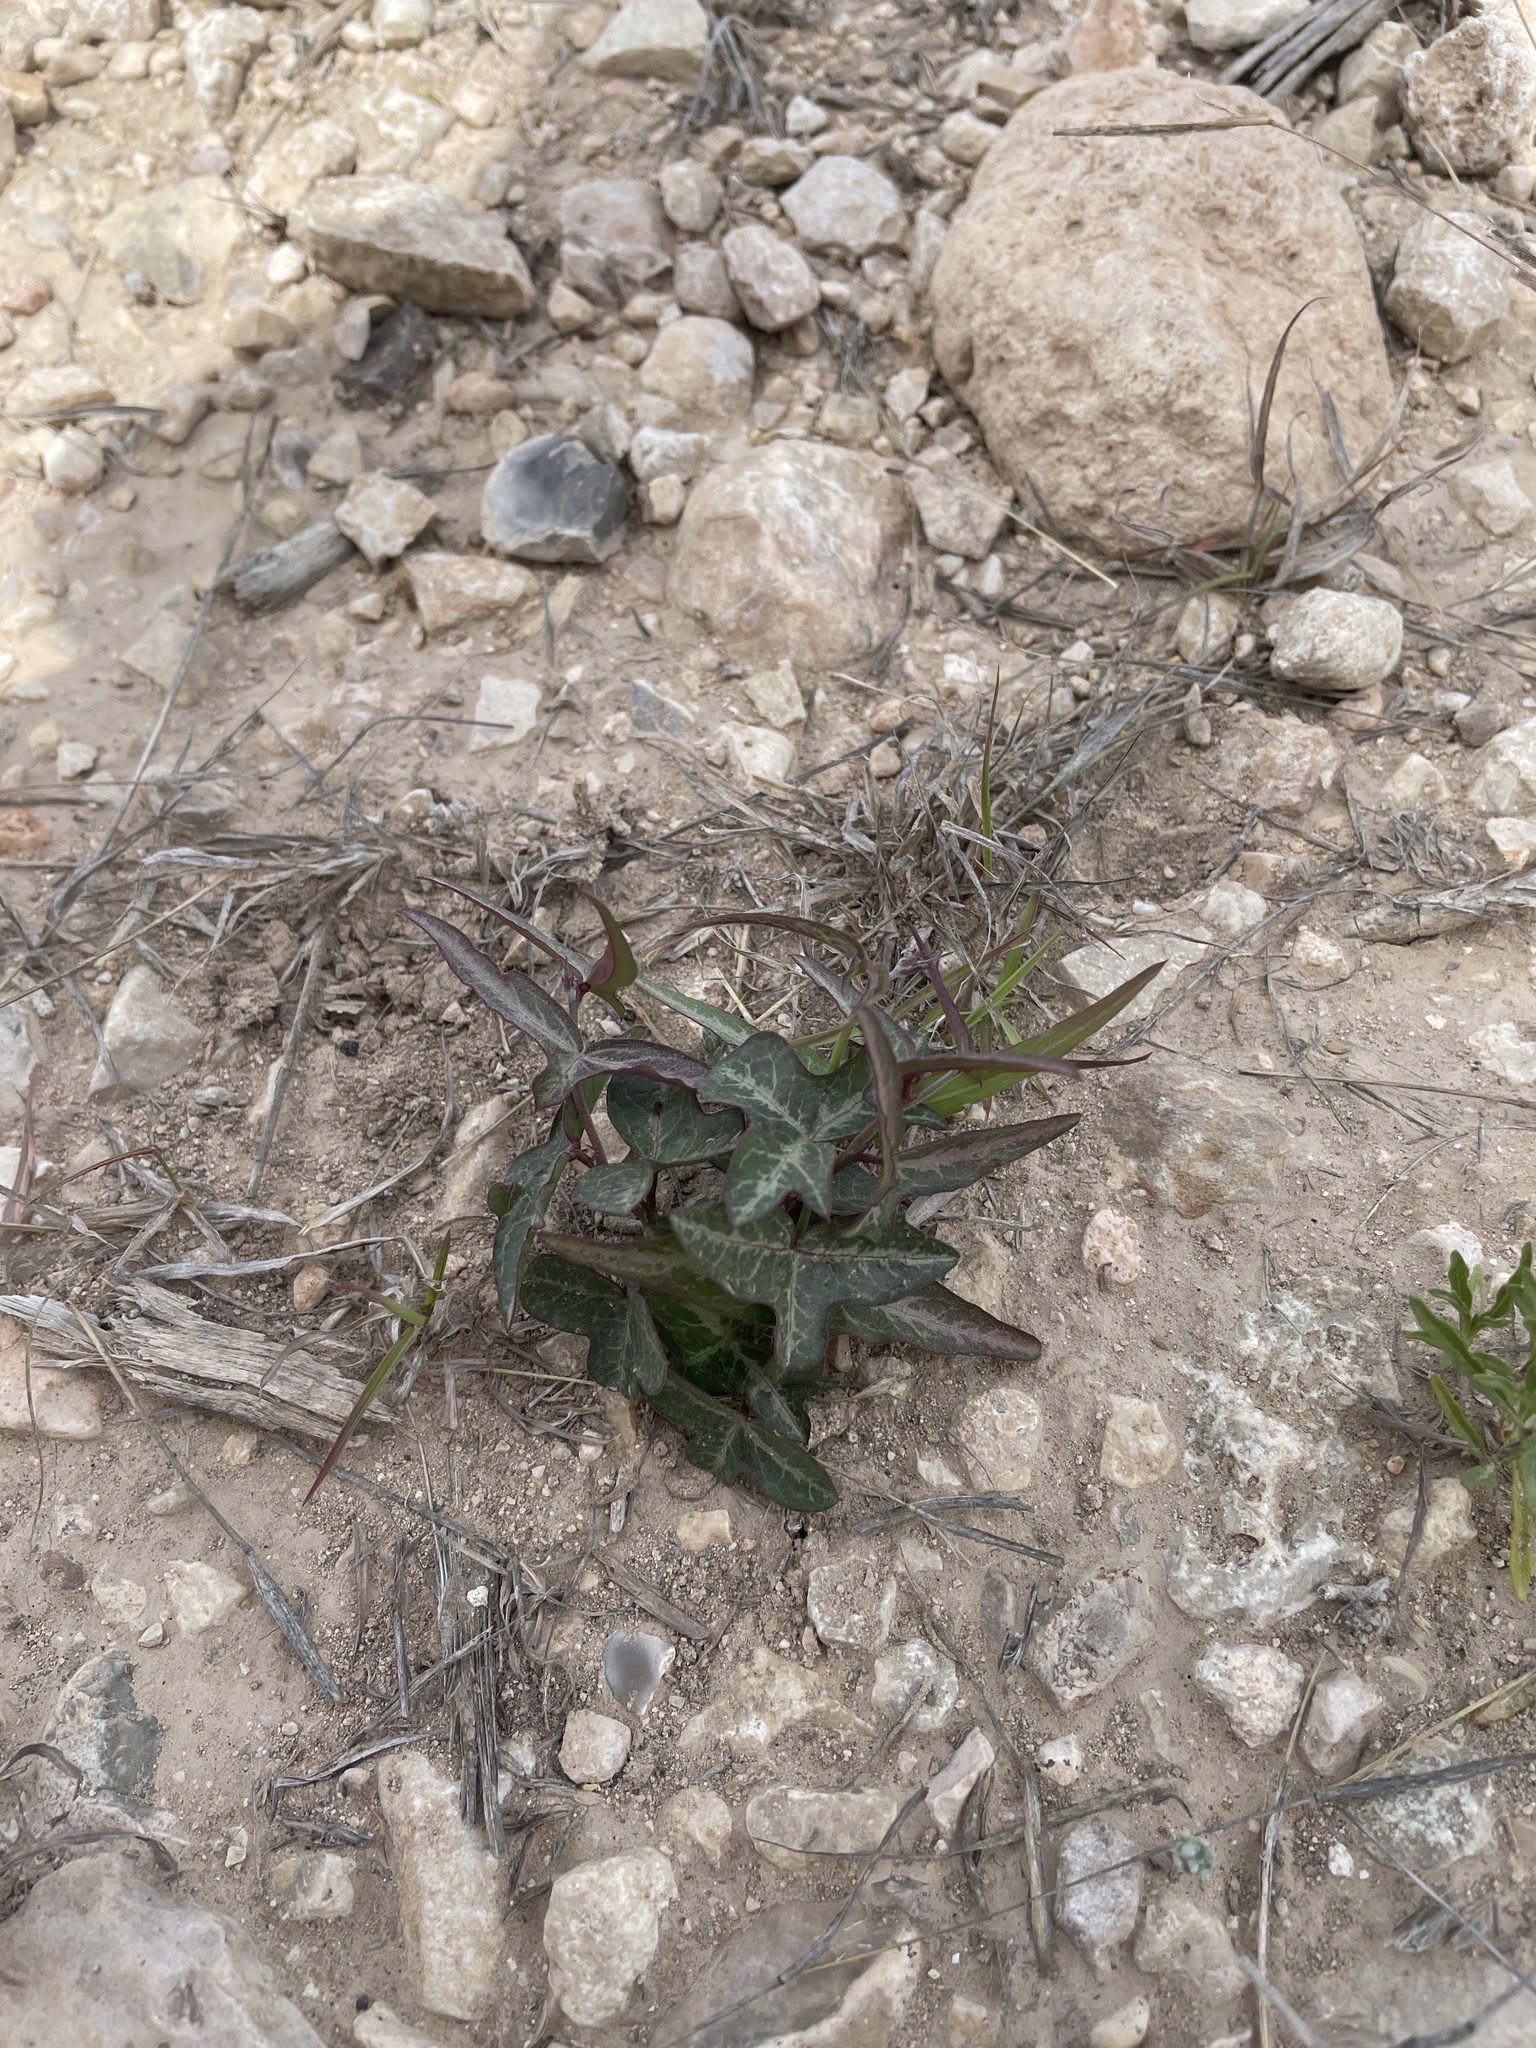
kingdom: Plantae
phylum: Tracheophyta
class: Magnoliopsida
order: Malpighiales
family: Passifloraceae
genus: Passiflora
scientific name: Passiflora tenuiloba
